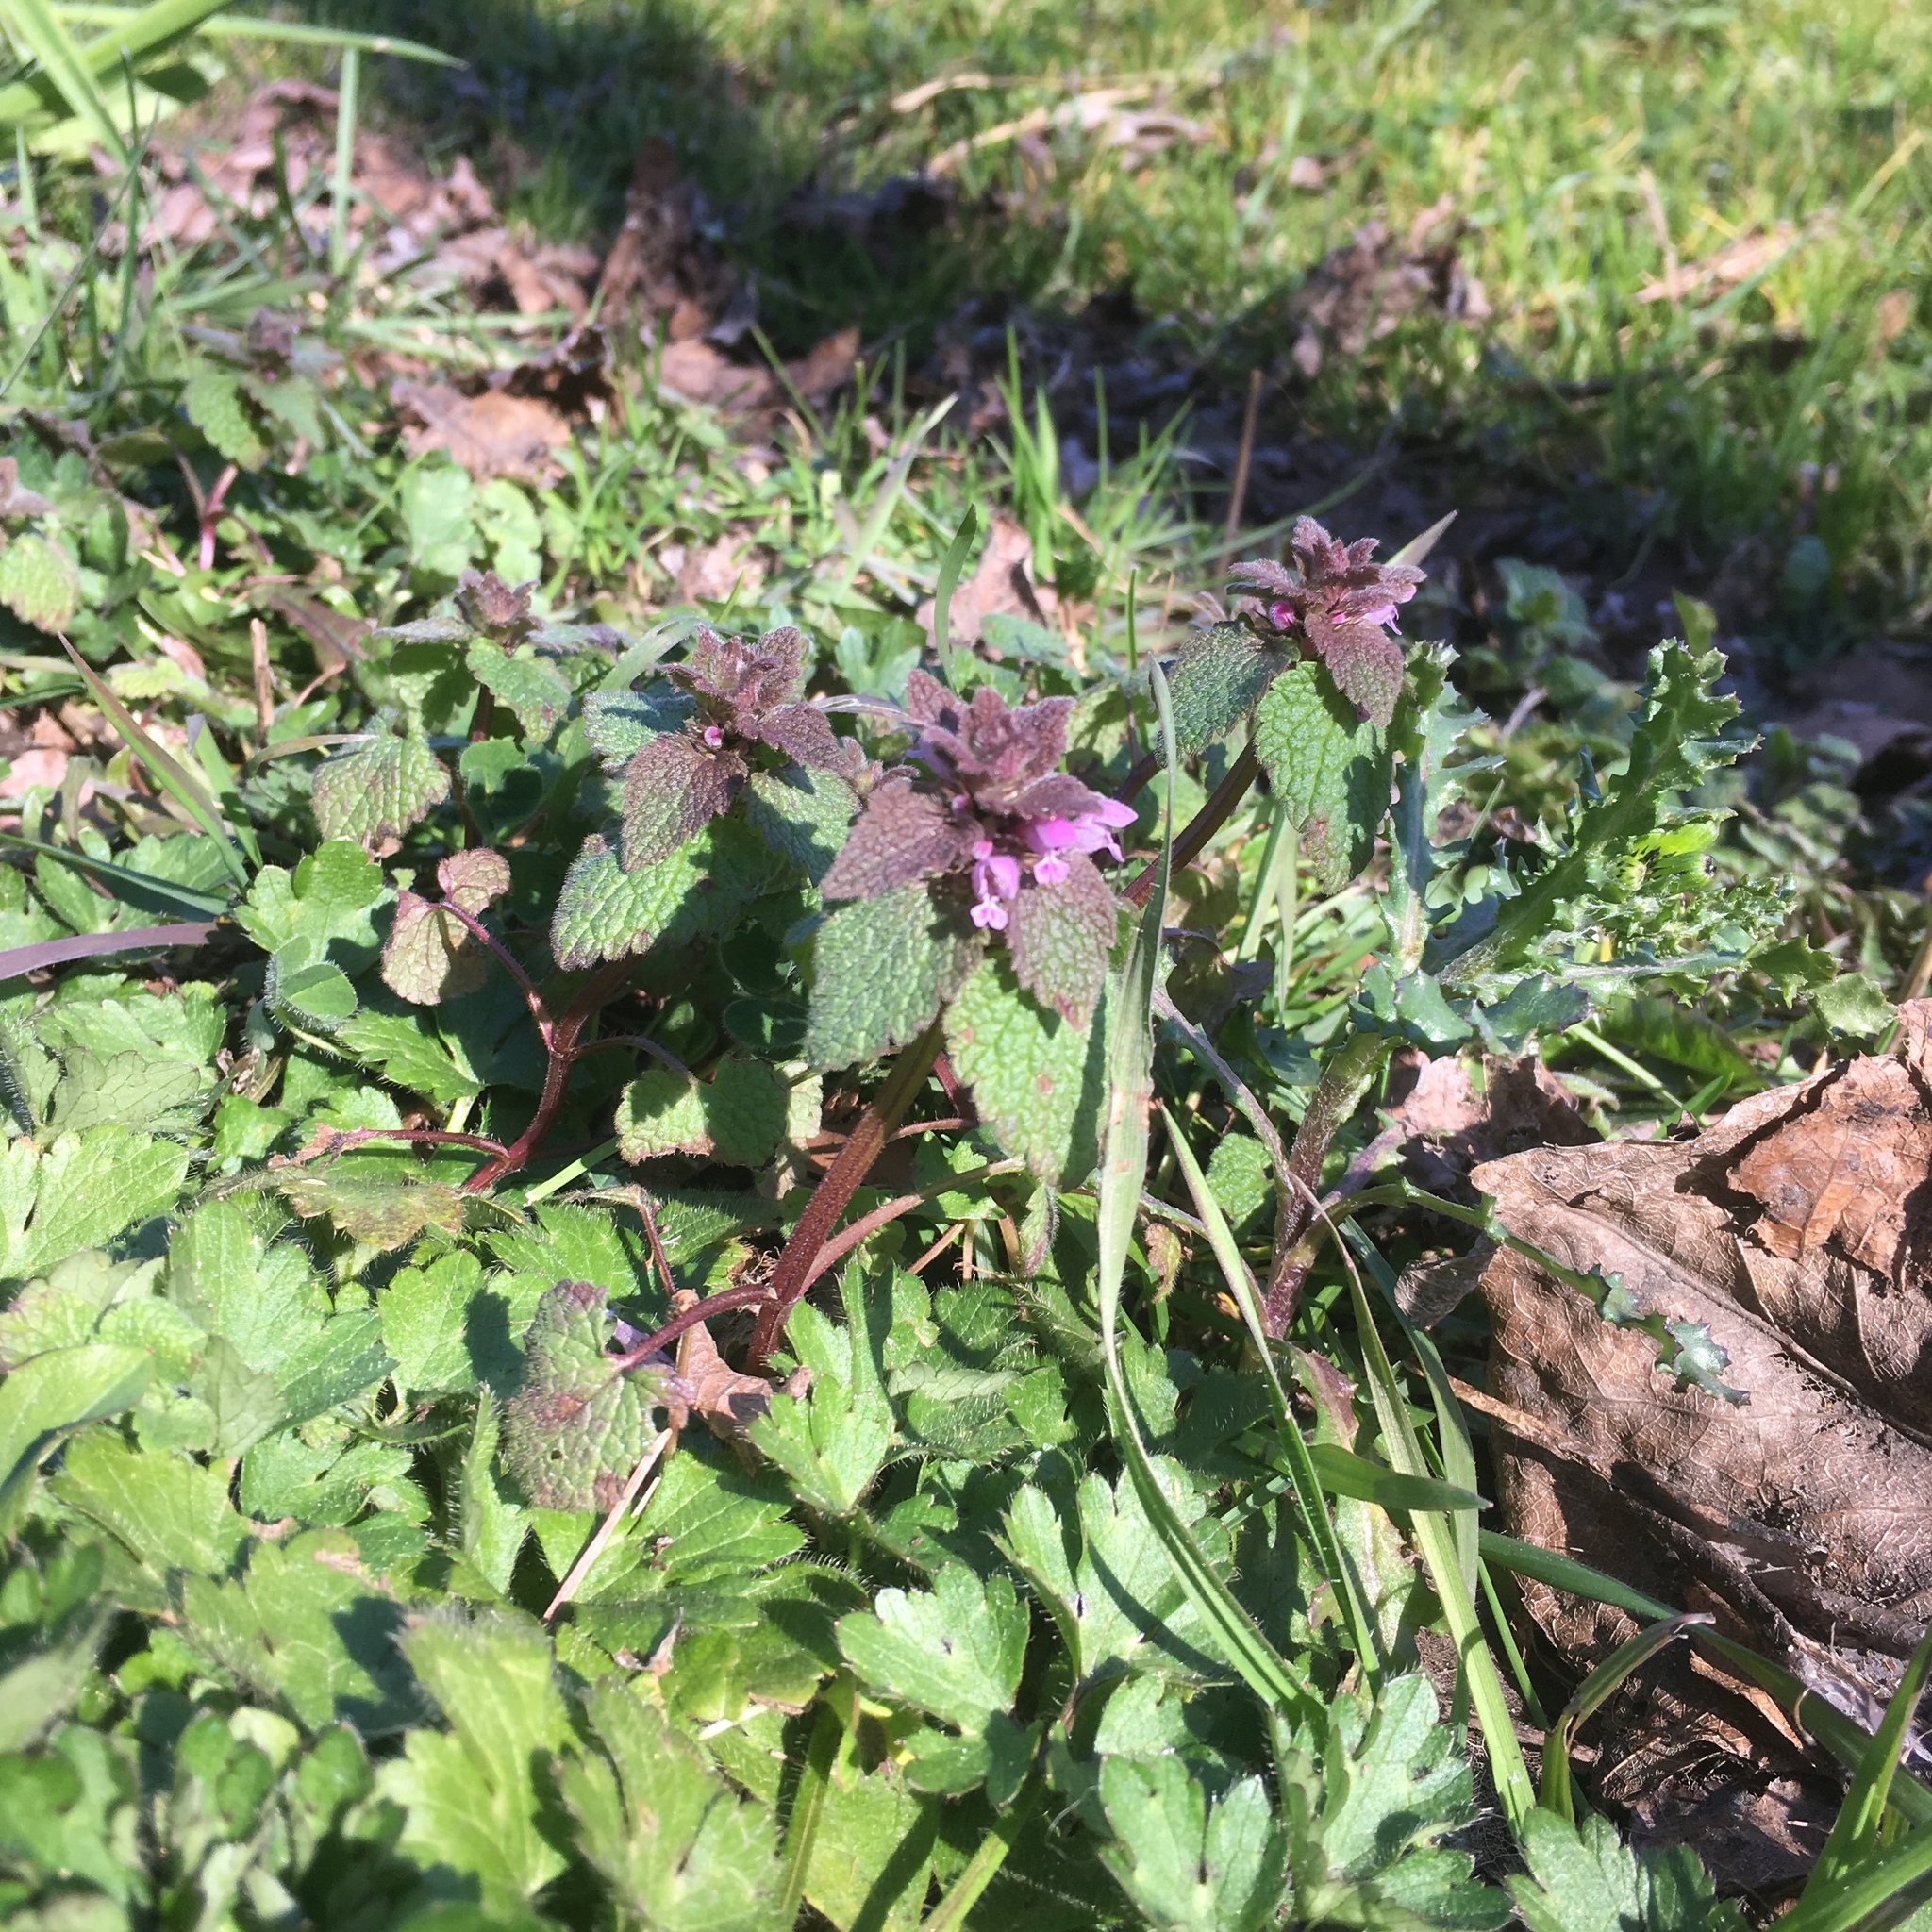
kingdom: Plantae
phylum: Tracheophyta
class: Magnoliopsida
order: Lamiales
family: Lamiaceae
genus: Lamium
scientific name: Lamium purpureum
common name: Red dead-nettle
